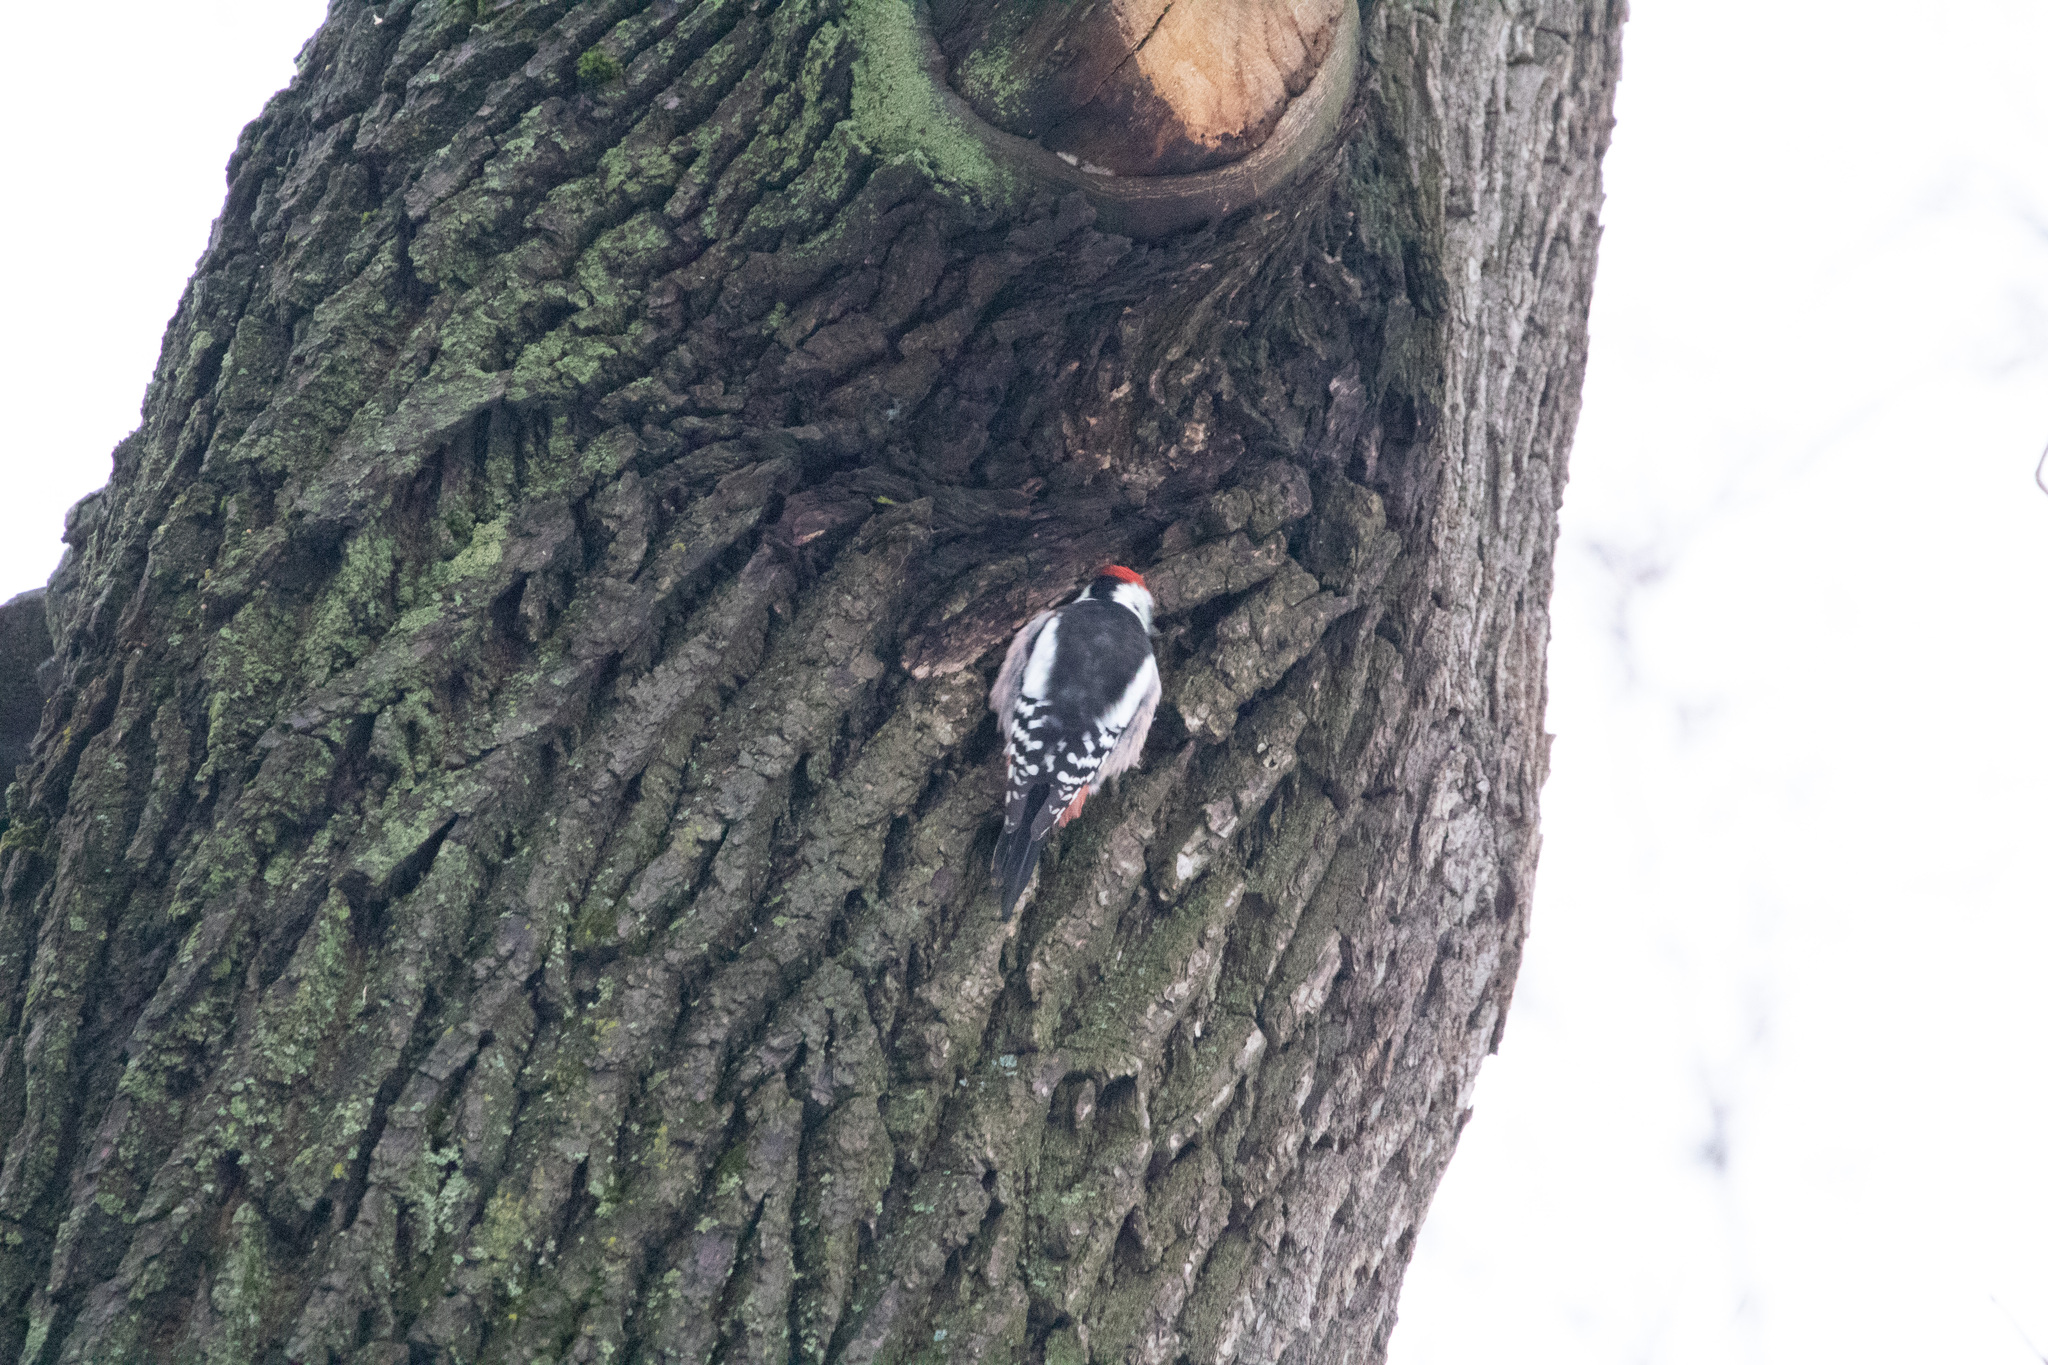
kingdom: Animalia
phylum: Chordata
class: Aves
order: Piciformes
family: Picidae
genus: Dendrocoptes
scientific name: Dendrocoptes medius
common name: Middle spotted woodpecker
